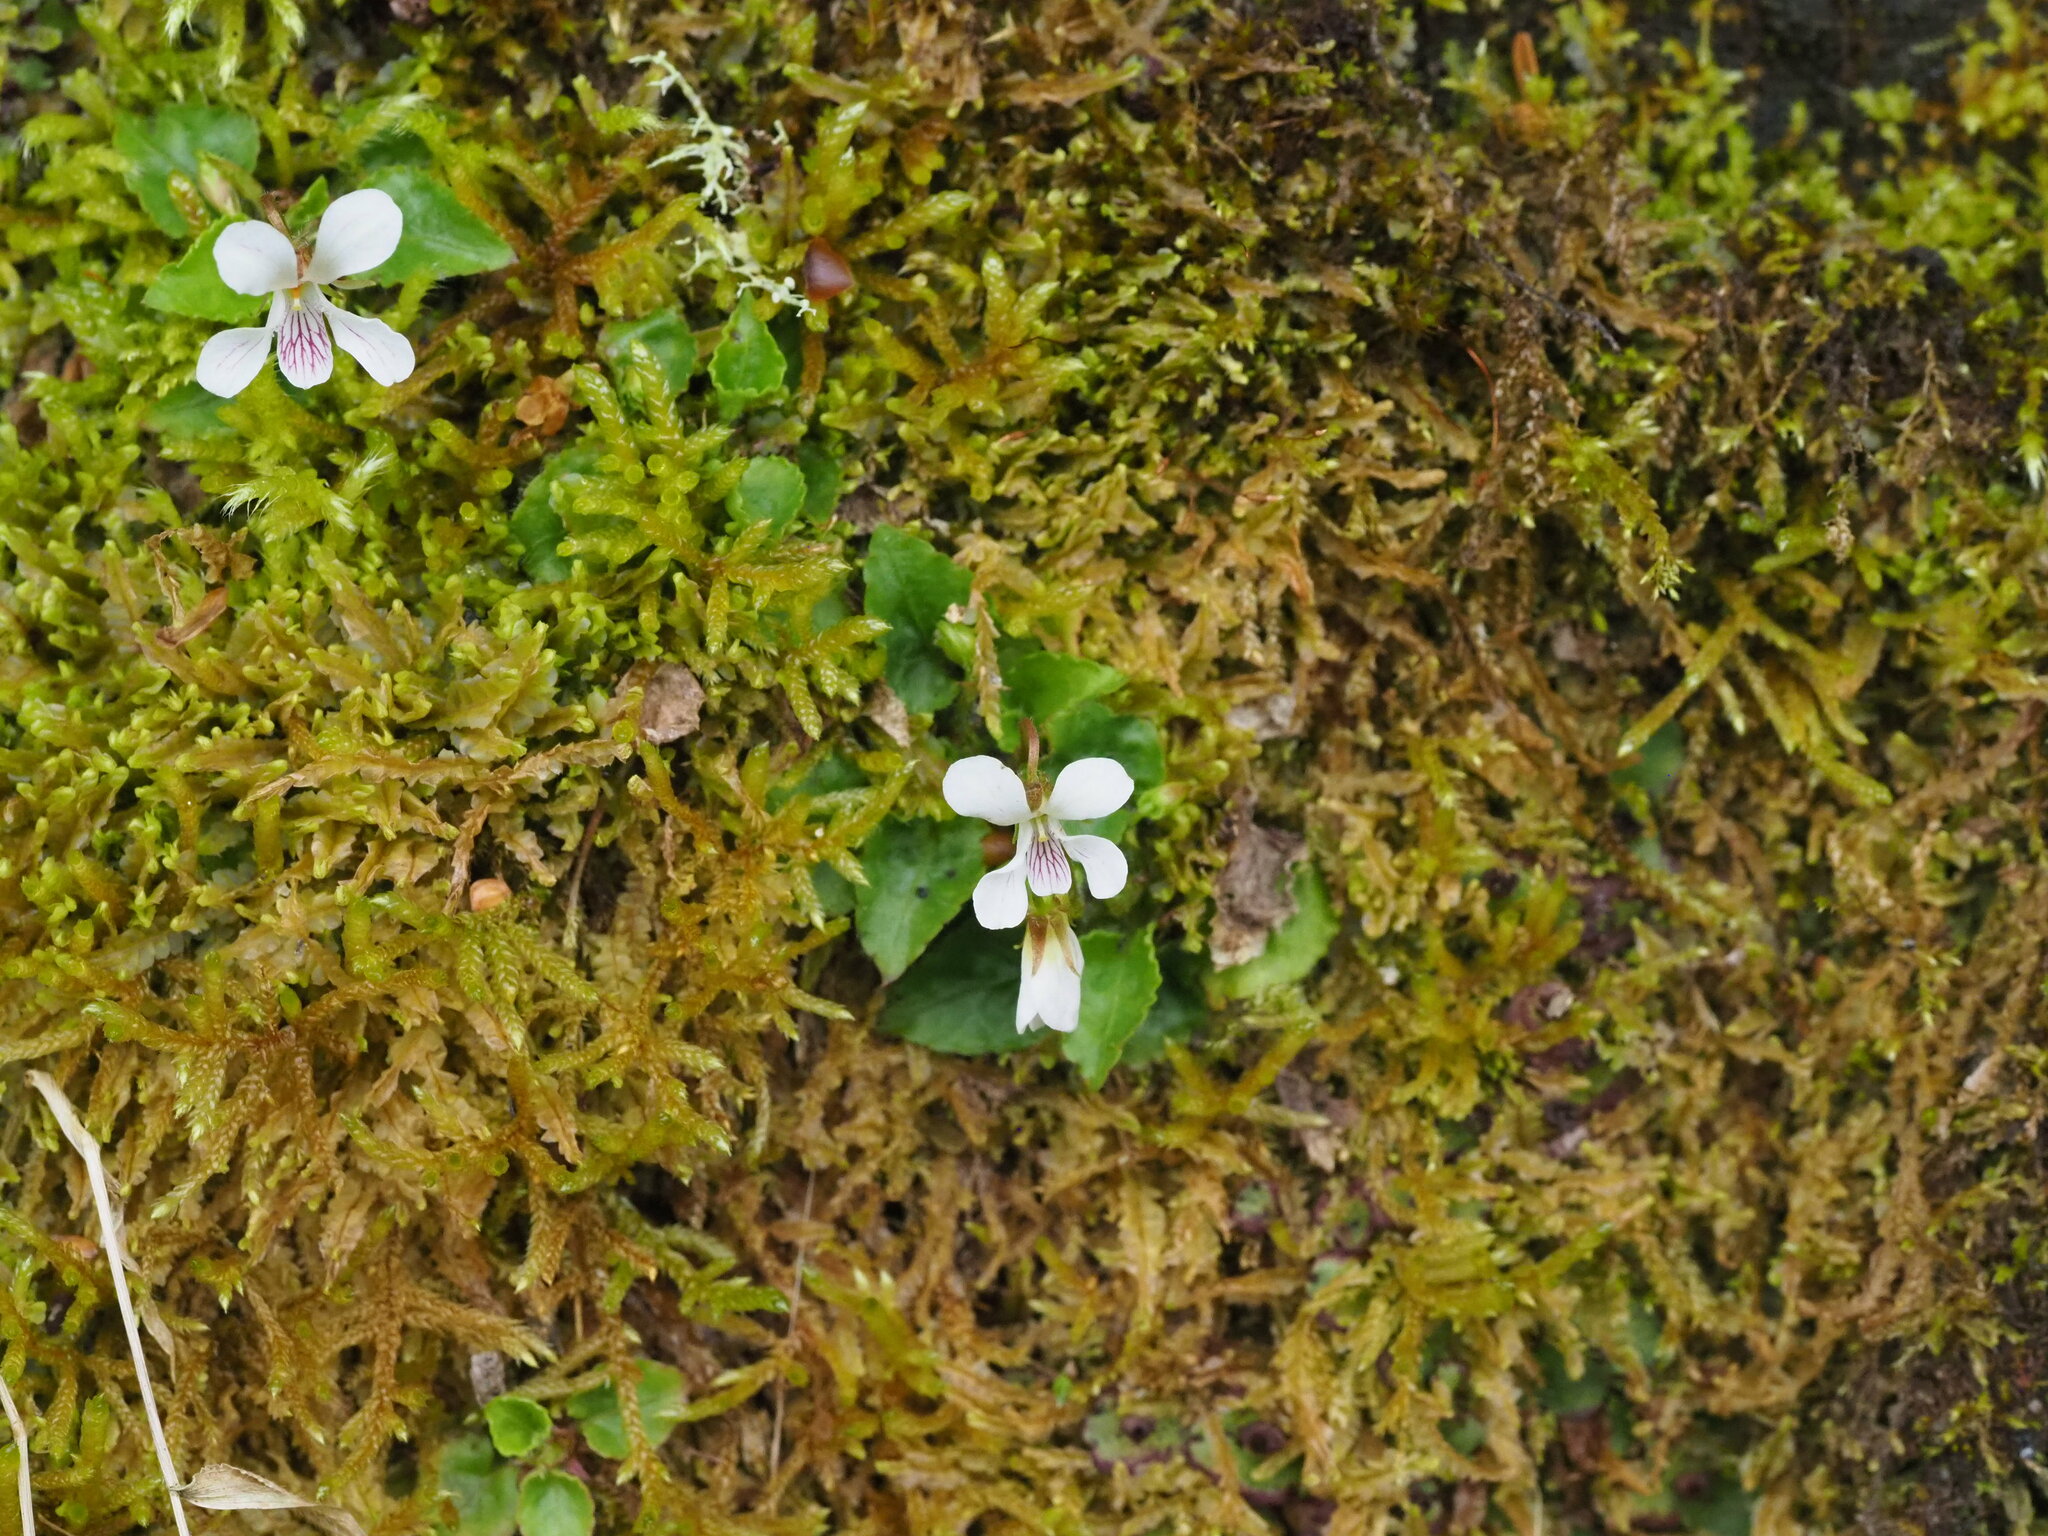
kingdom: Plantae
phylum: Tracheophyta
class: Magnoliopsida
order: Malpighiales
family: Violaceae
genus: Viola
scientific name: Viola adenothrix
